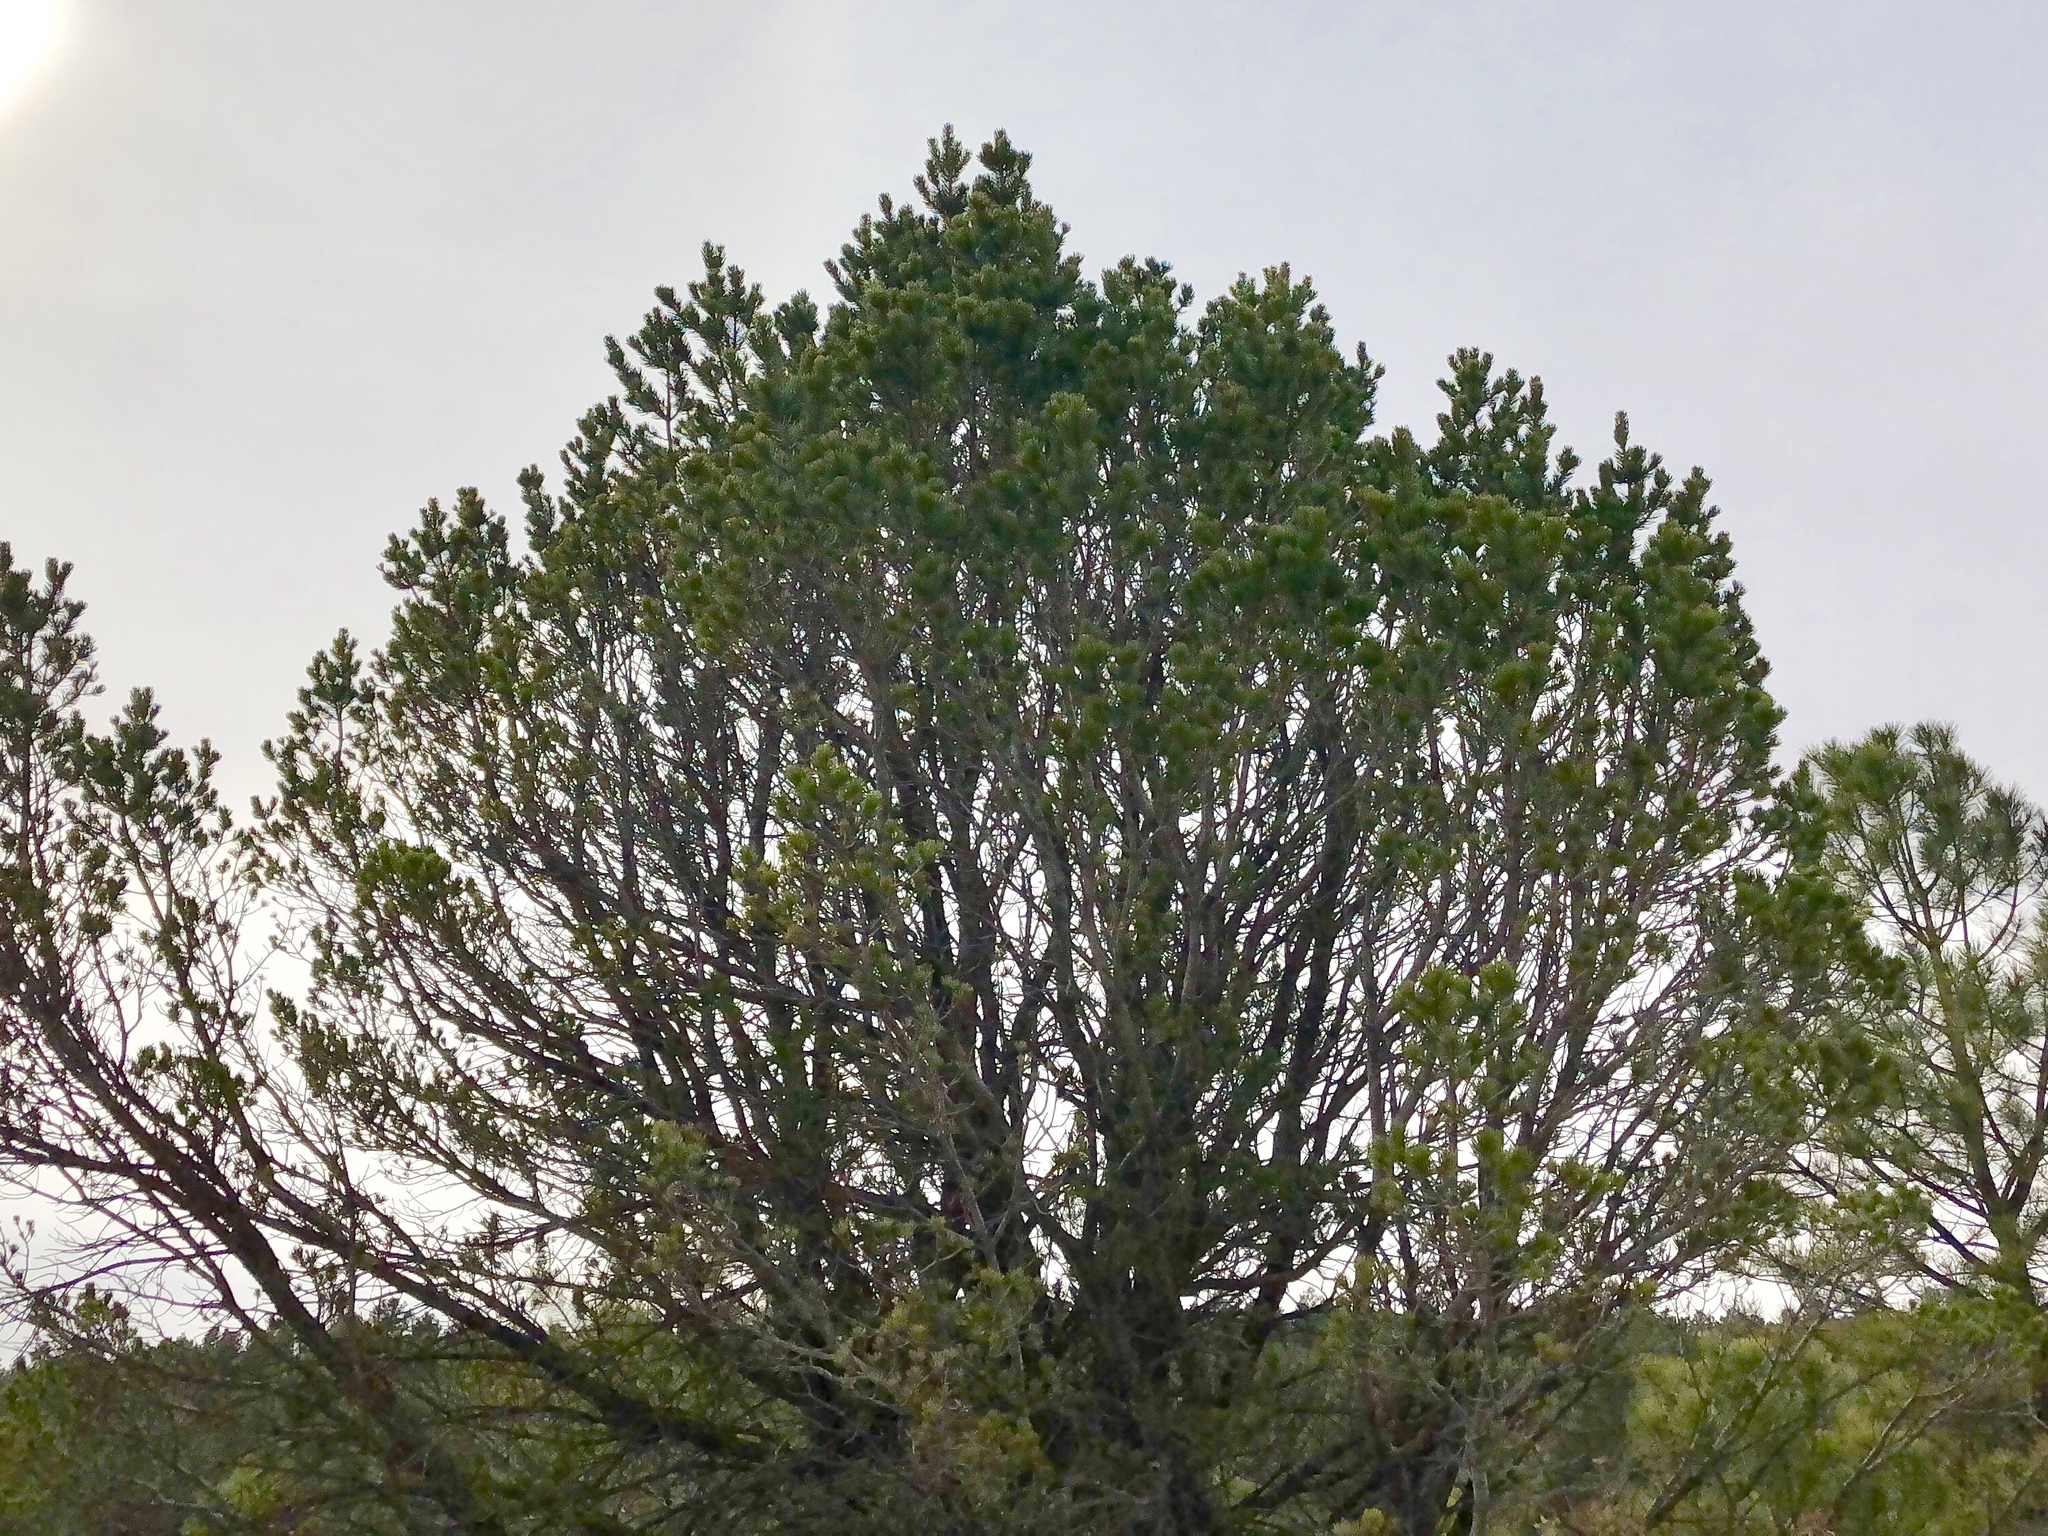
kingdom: Plantae
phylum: Tracheophyta
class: Pinopsida
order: Pinales
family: Pinaceae
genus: Pinus
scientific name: Pinus edulis
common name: Colorado pinyon
